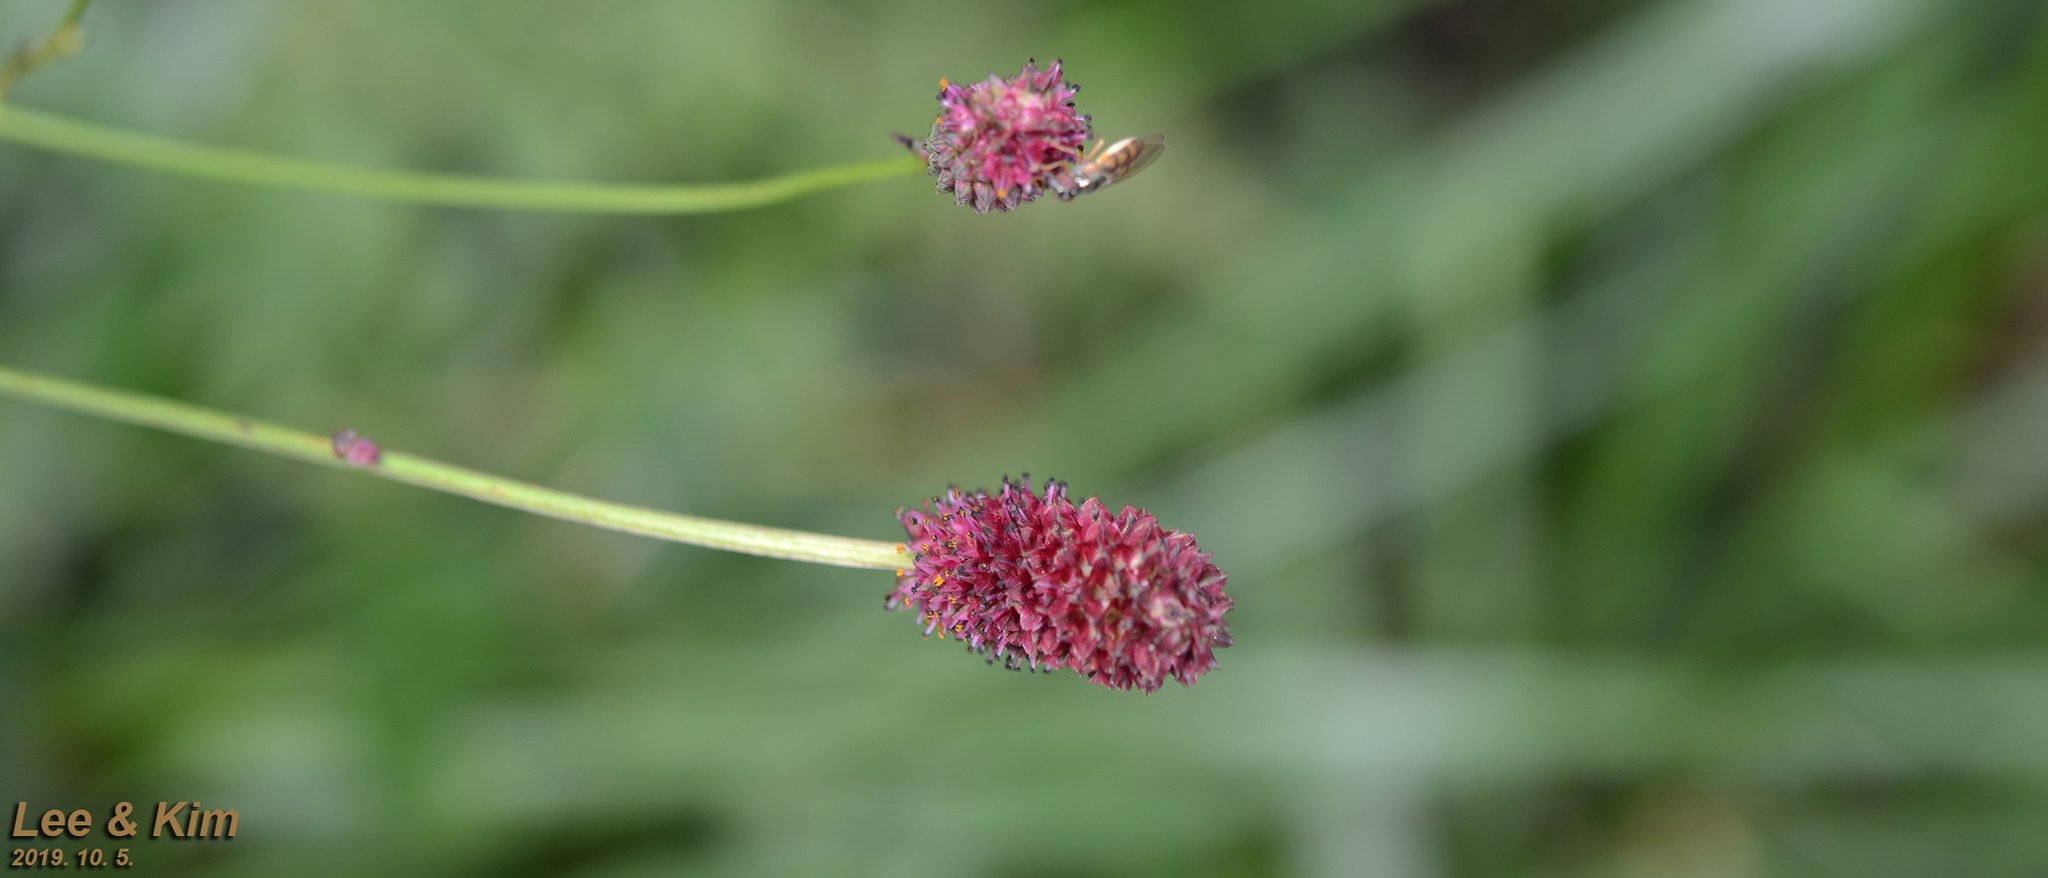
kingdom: Plantae
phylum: Tracheophyta
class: Magnoliopsida
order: Rosales
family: Rosaceae
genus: Sanguisorba
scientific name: Sanguisorba officinalis
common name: Great burnet
